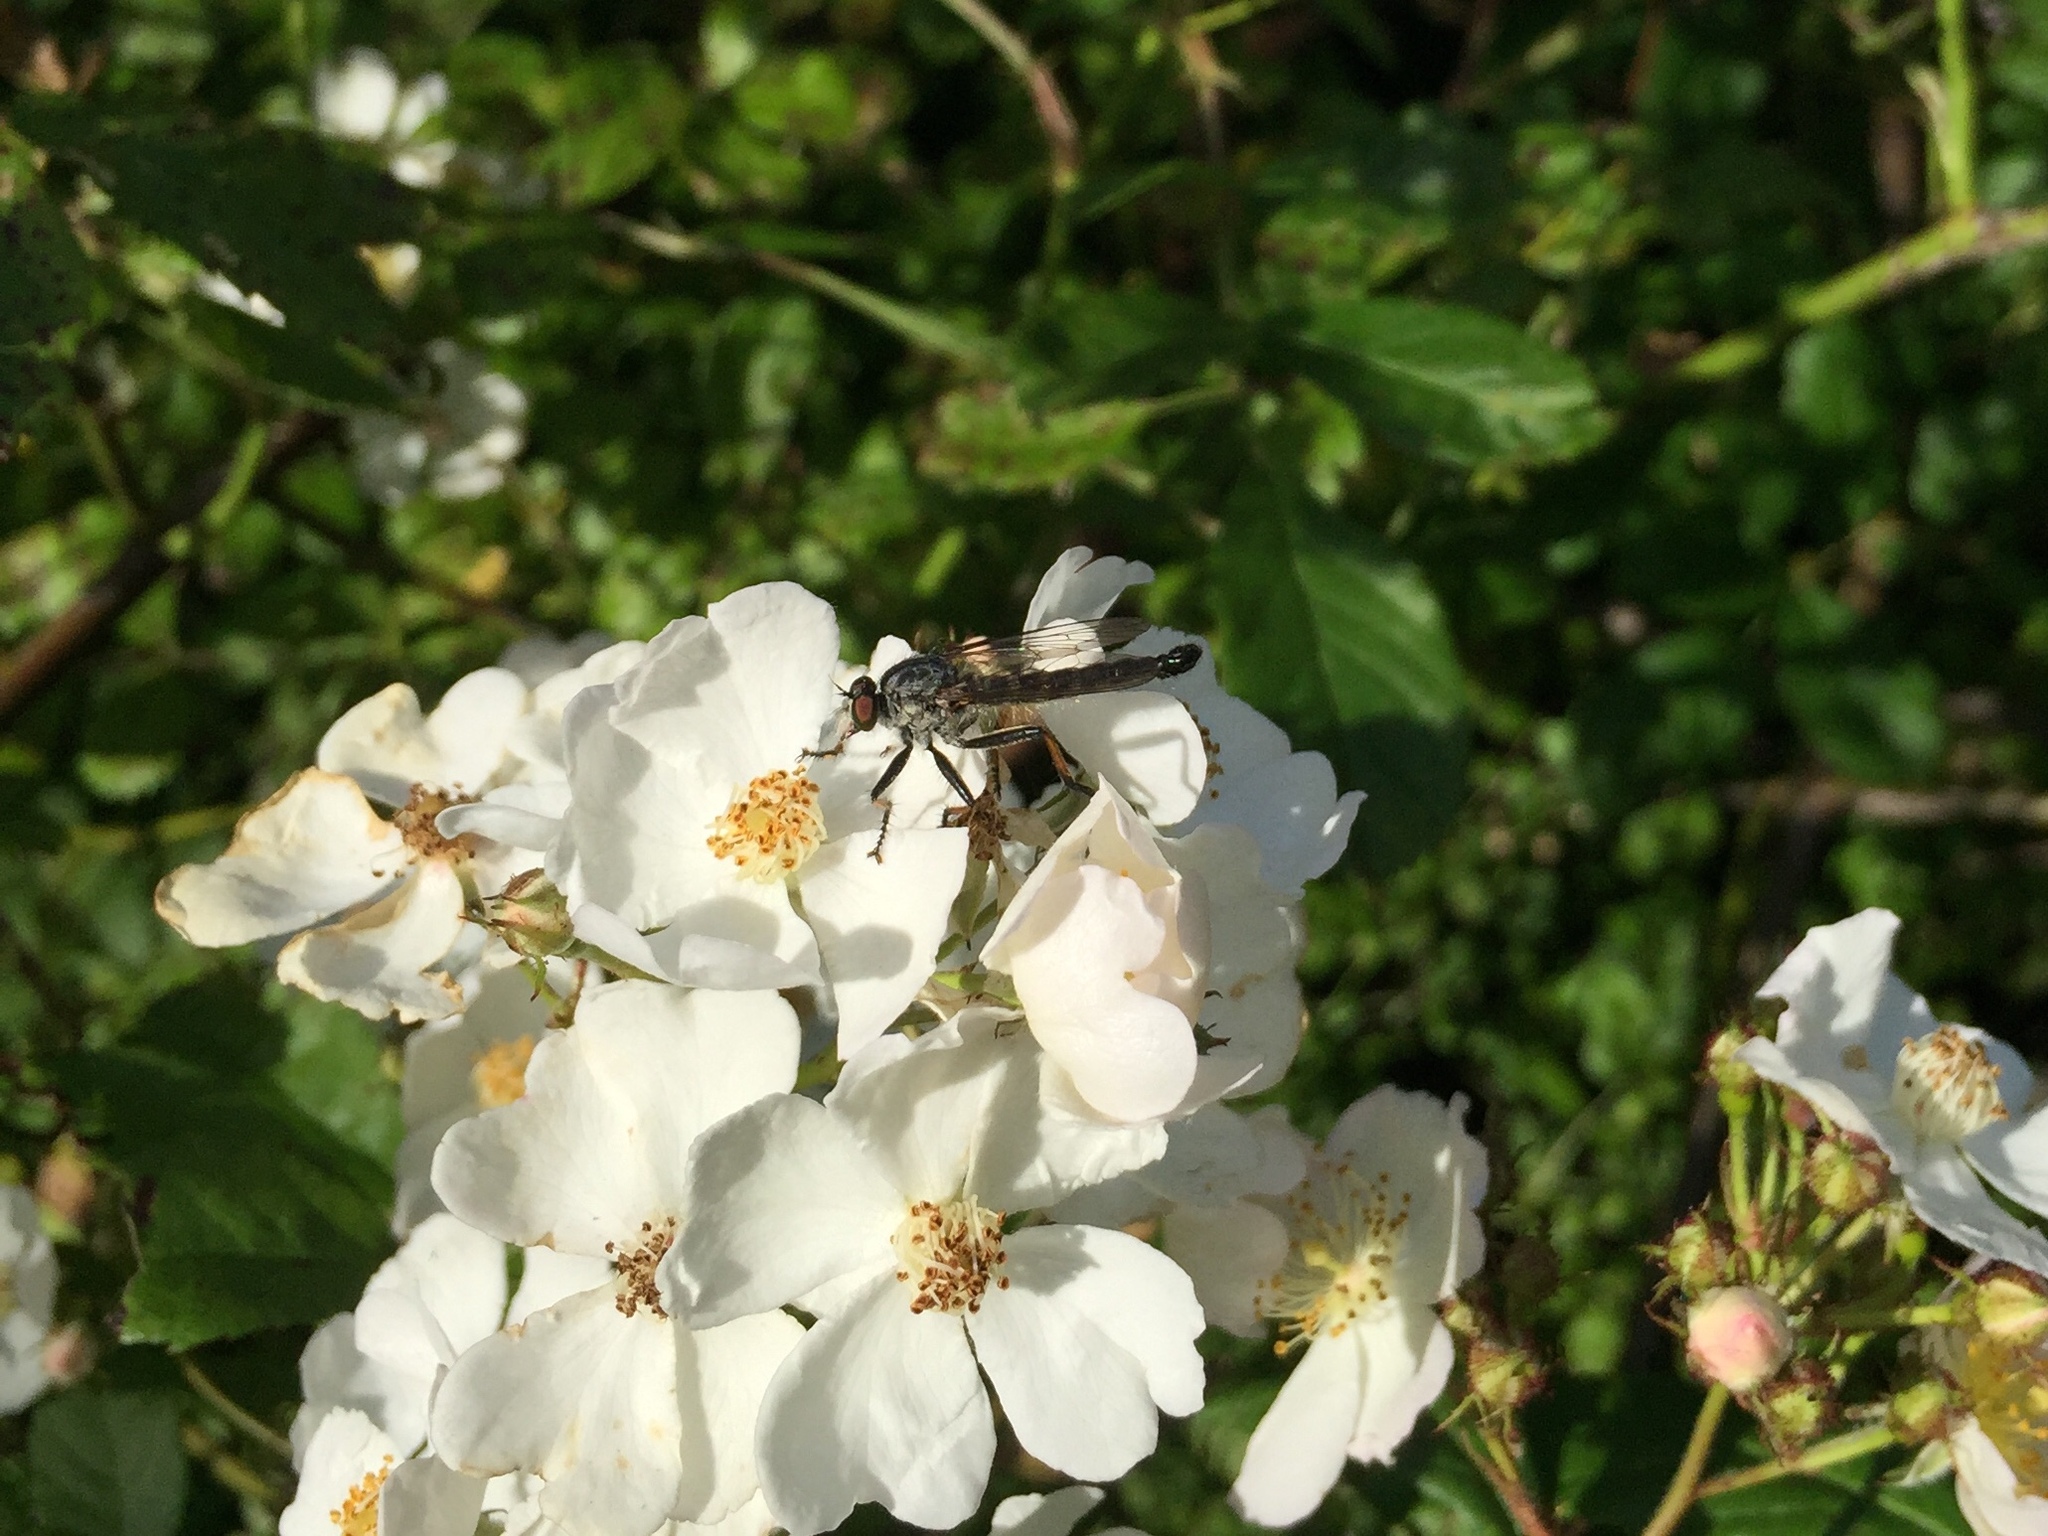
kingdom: Animalia
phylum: Arthropoda
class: Insecta
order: Diptera
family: Asilidae
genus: Neoitamus
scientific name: Neoitamus cyanurus
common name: Common awl robberfly
